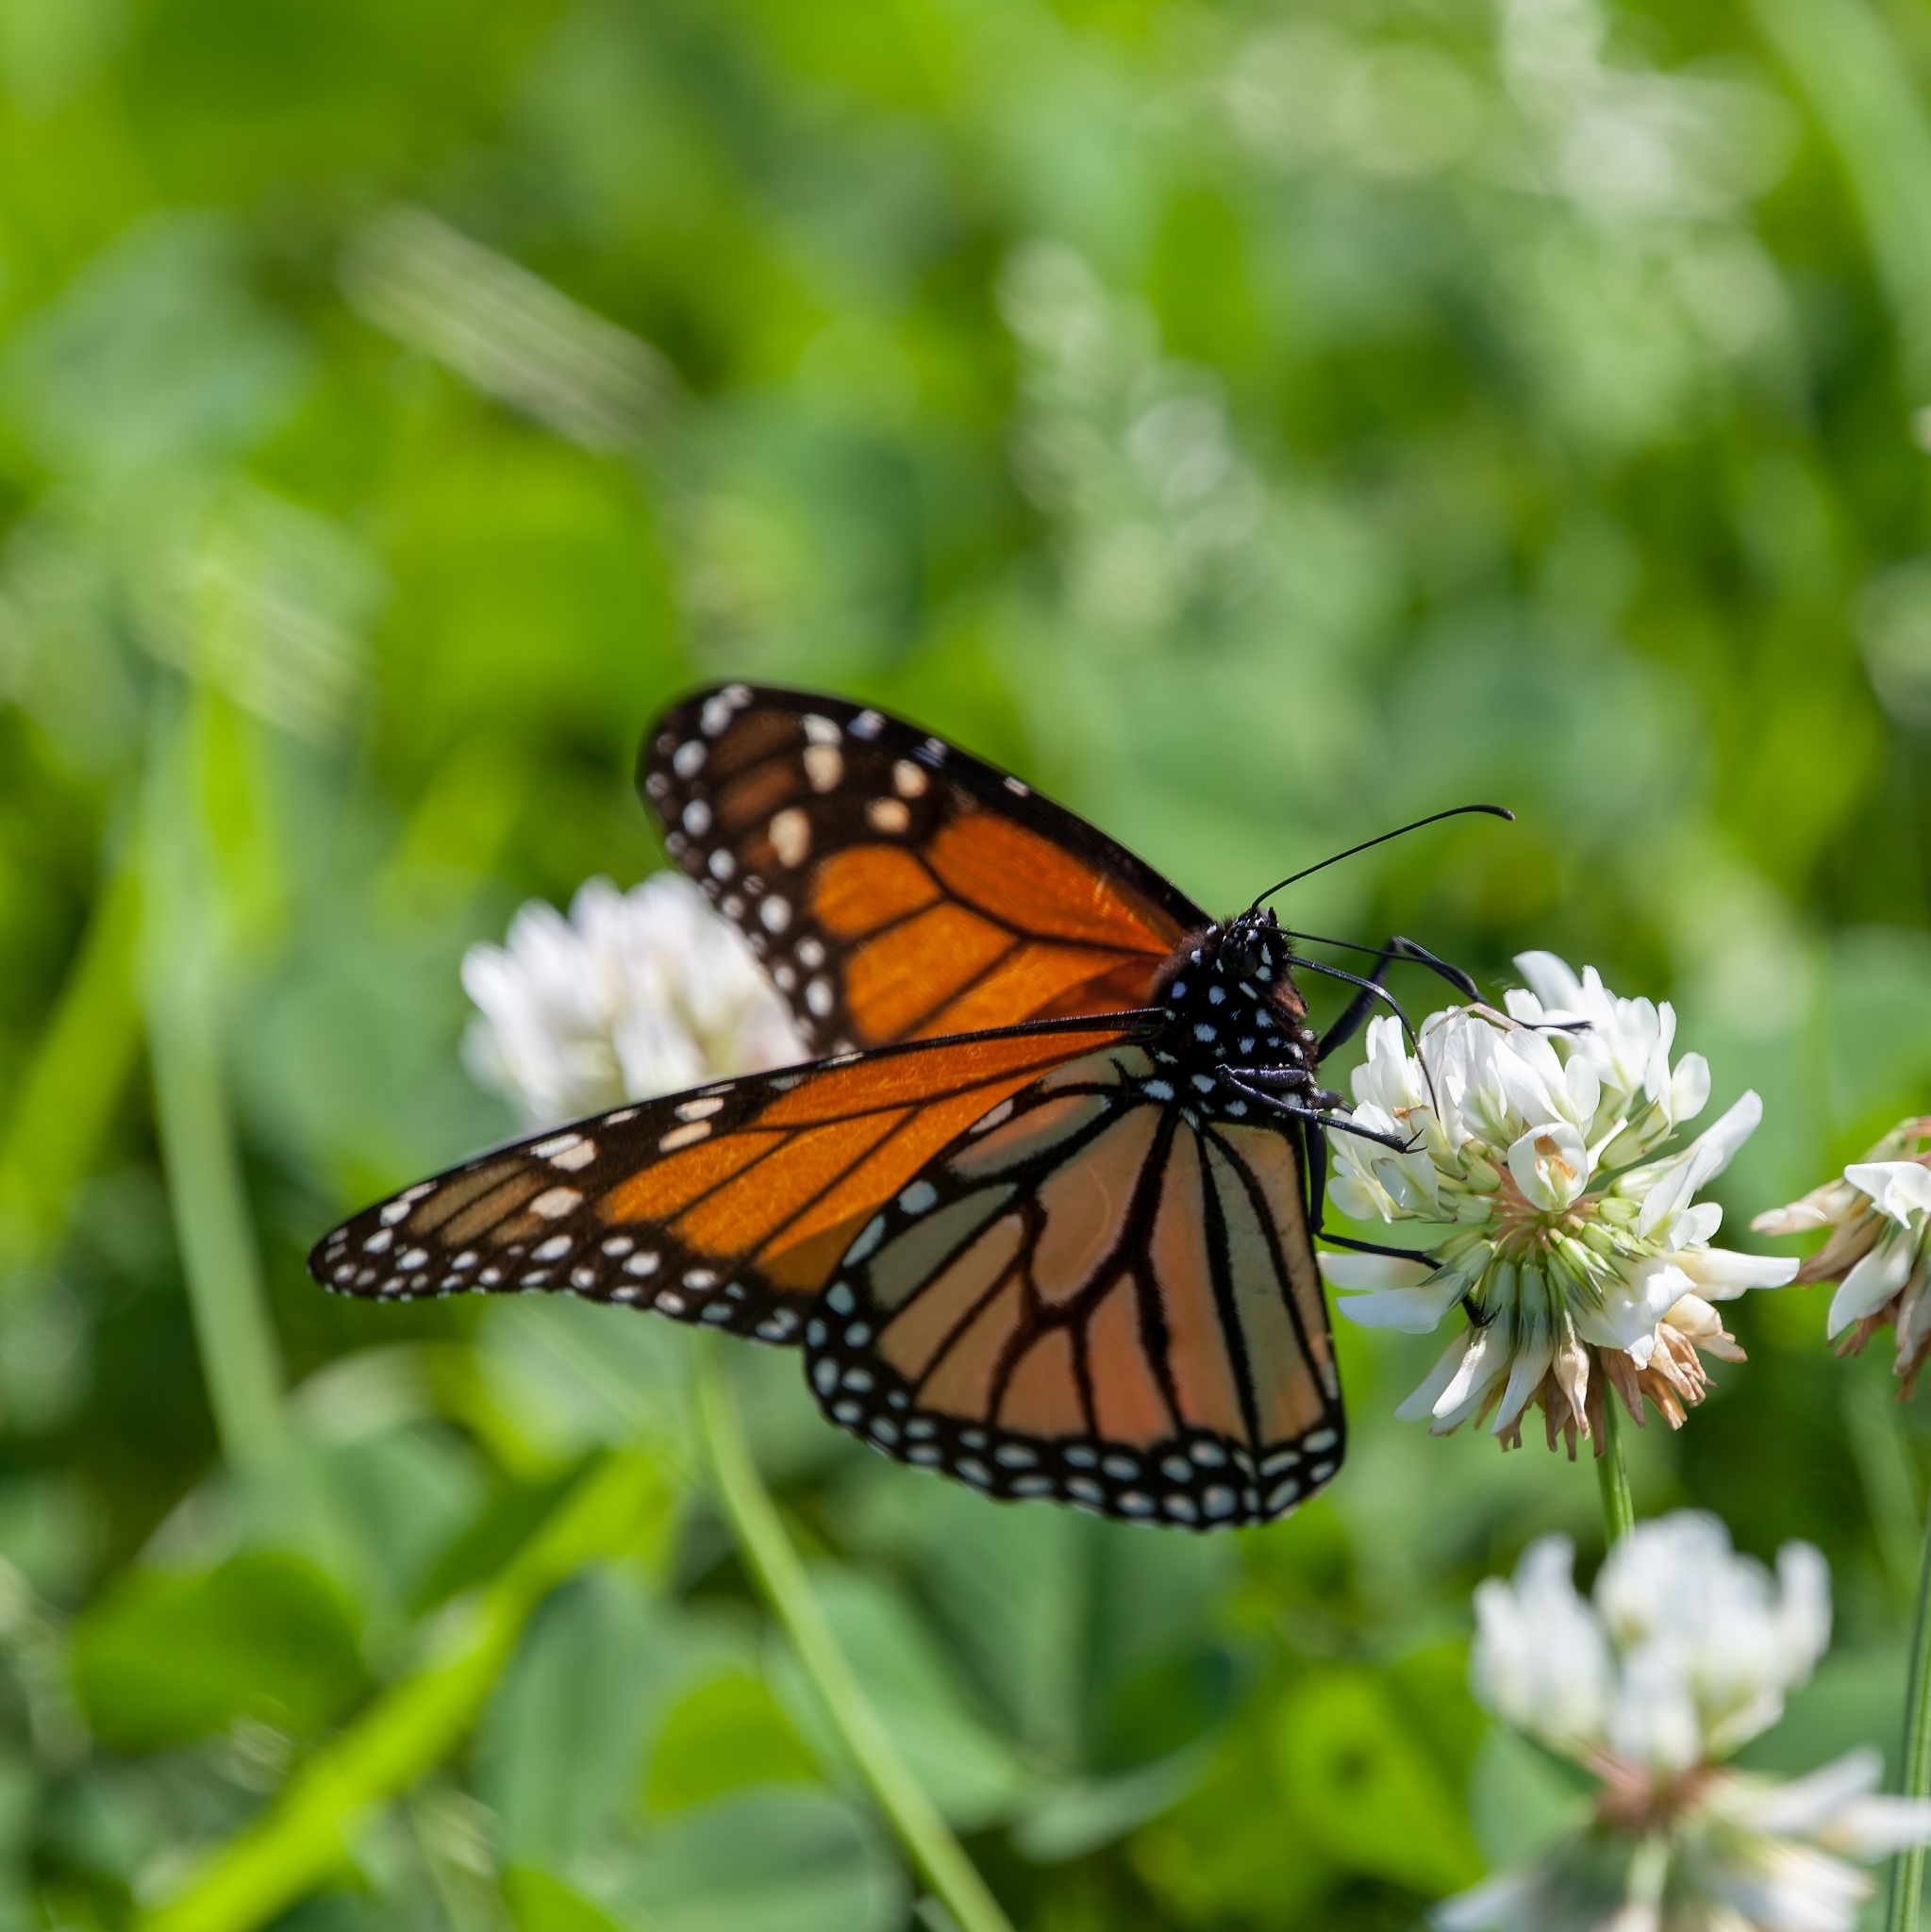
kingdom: Animalia
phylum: Arthropoda
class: Insecta
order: Lepidoptera
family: Nymphalidae
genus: Danaus
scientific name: Danaus plexippus
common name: Monarch
